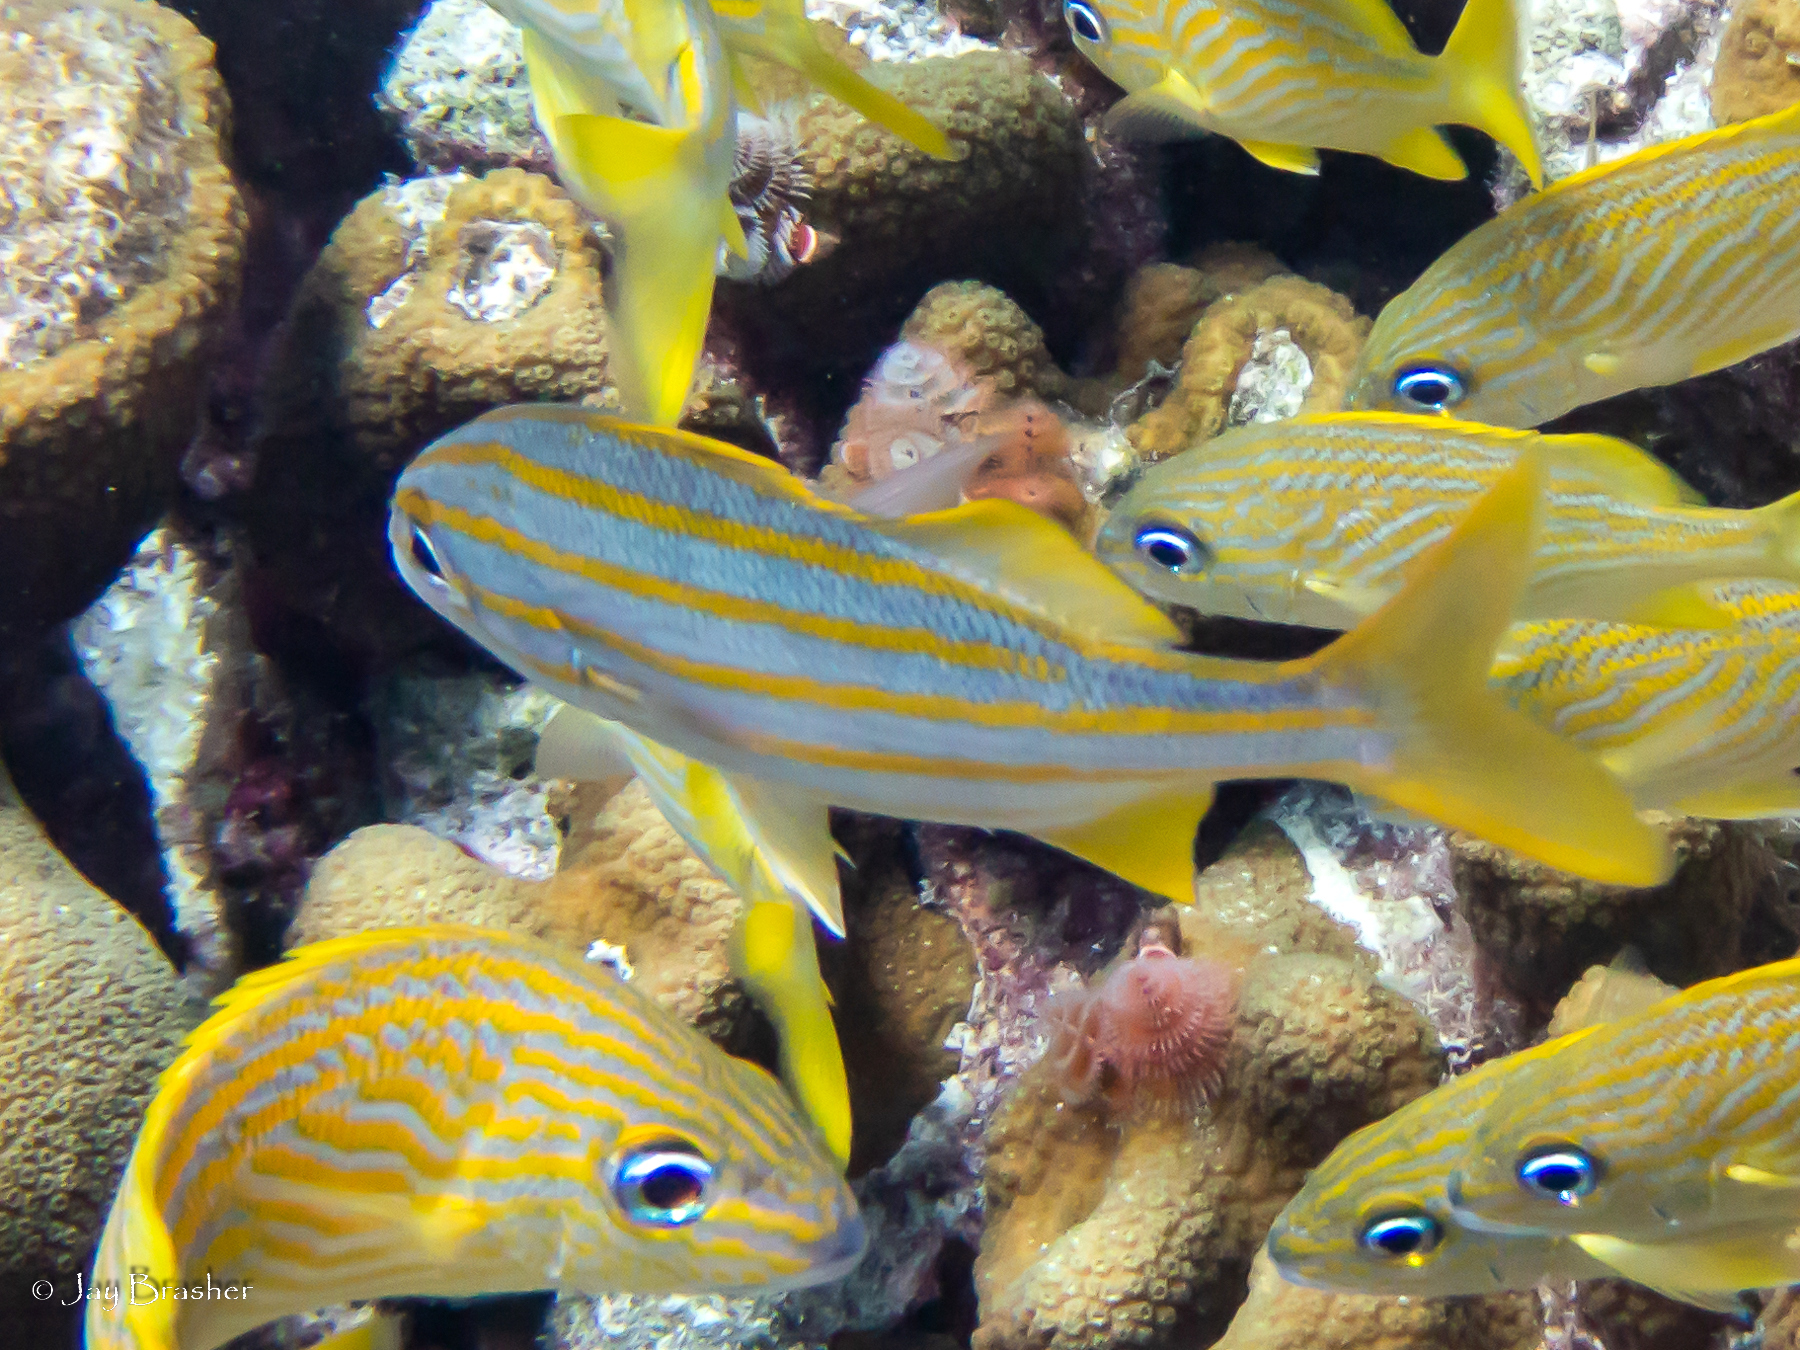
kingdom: Animalia
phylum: Chordata
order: Perciformes
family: Haemulidae
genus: Haemulon
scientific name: Haemulon chrysargyreum
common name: Smallmouth grunt
